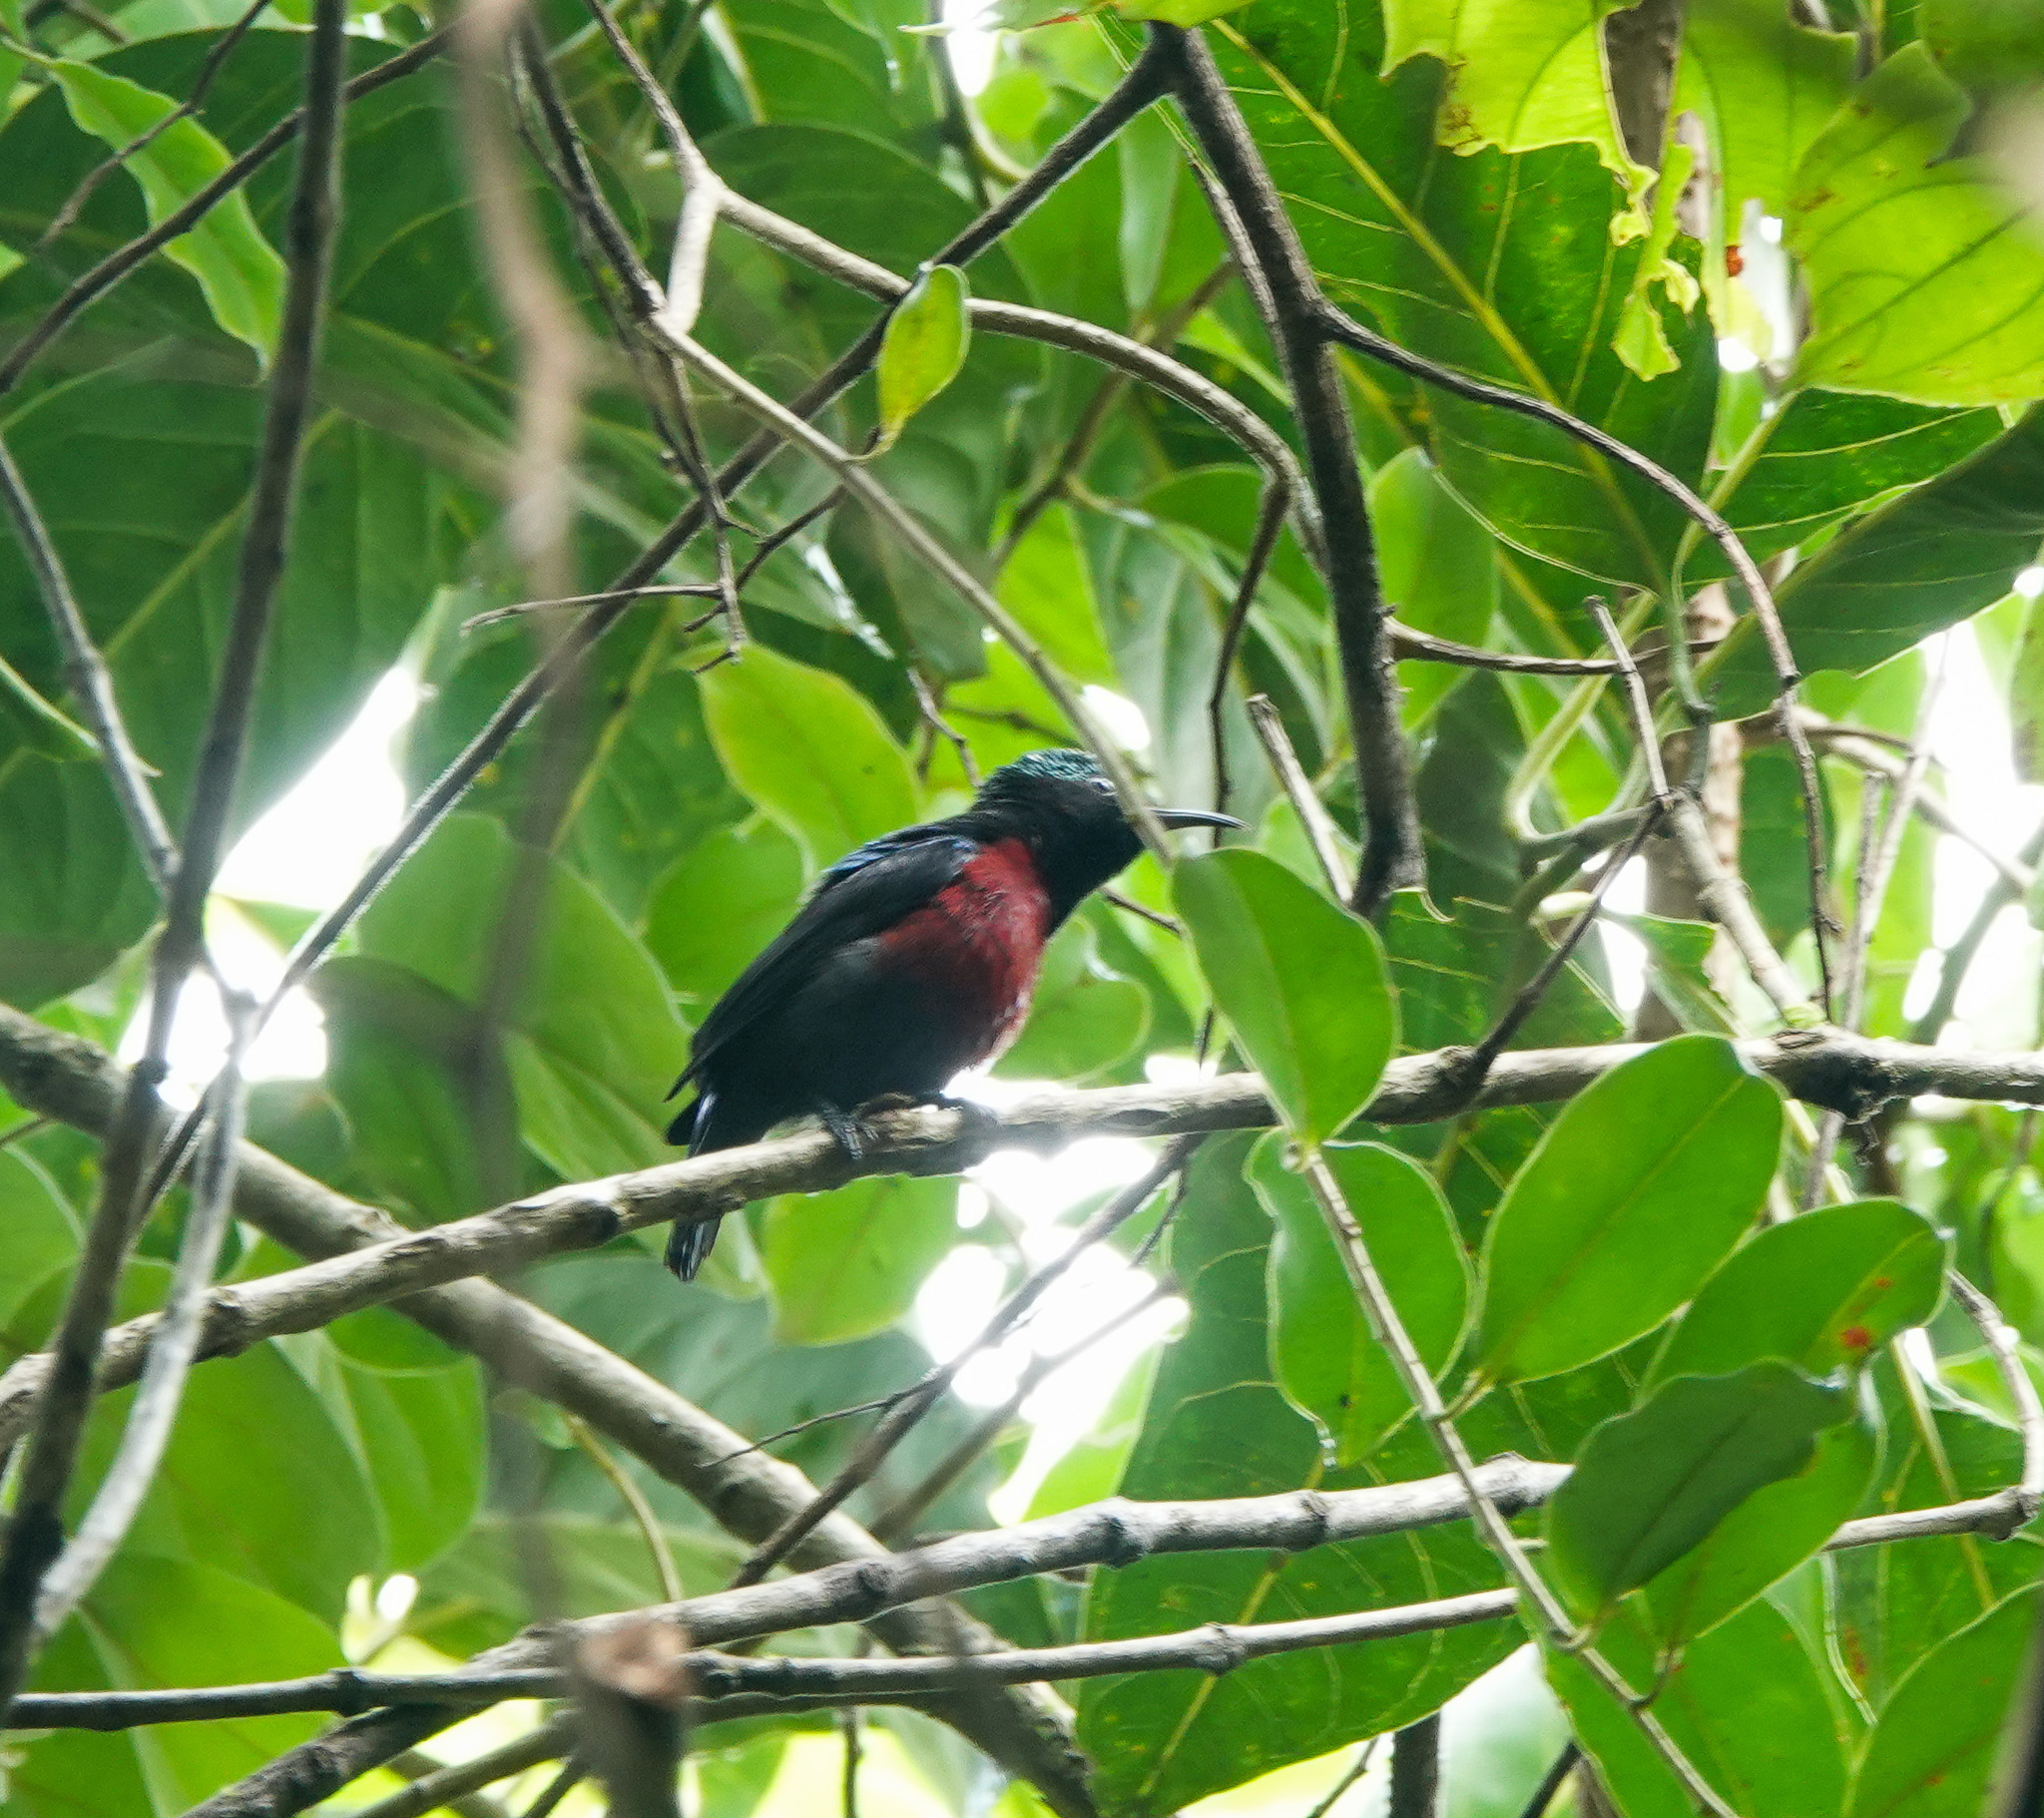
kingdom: Animalia
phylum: Chordata
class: Aves
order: Passeriformes
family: Nectariniidae
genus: Leptocoma
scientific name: Leptocoma brasiliana
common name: Van hasselt's sunbird
